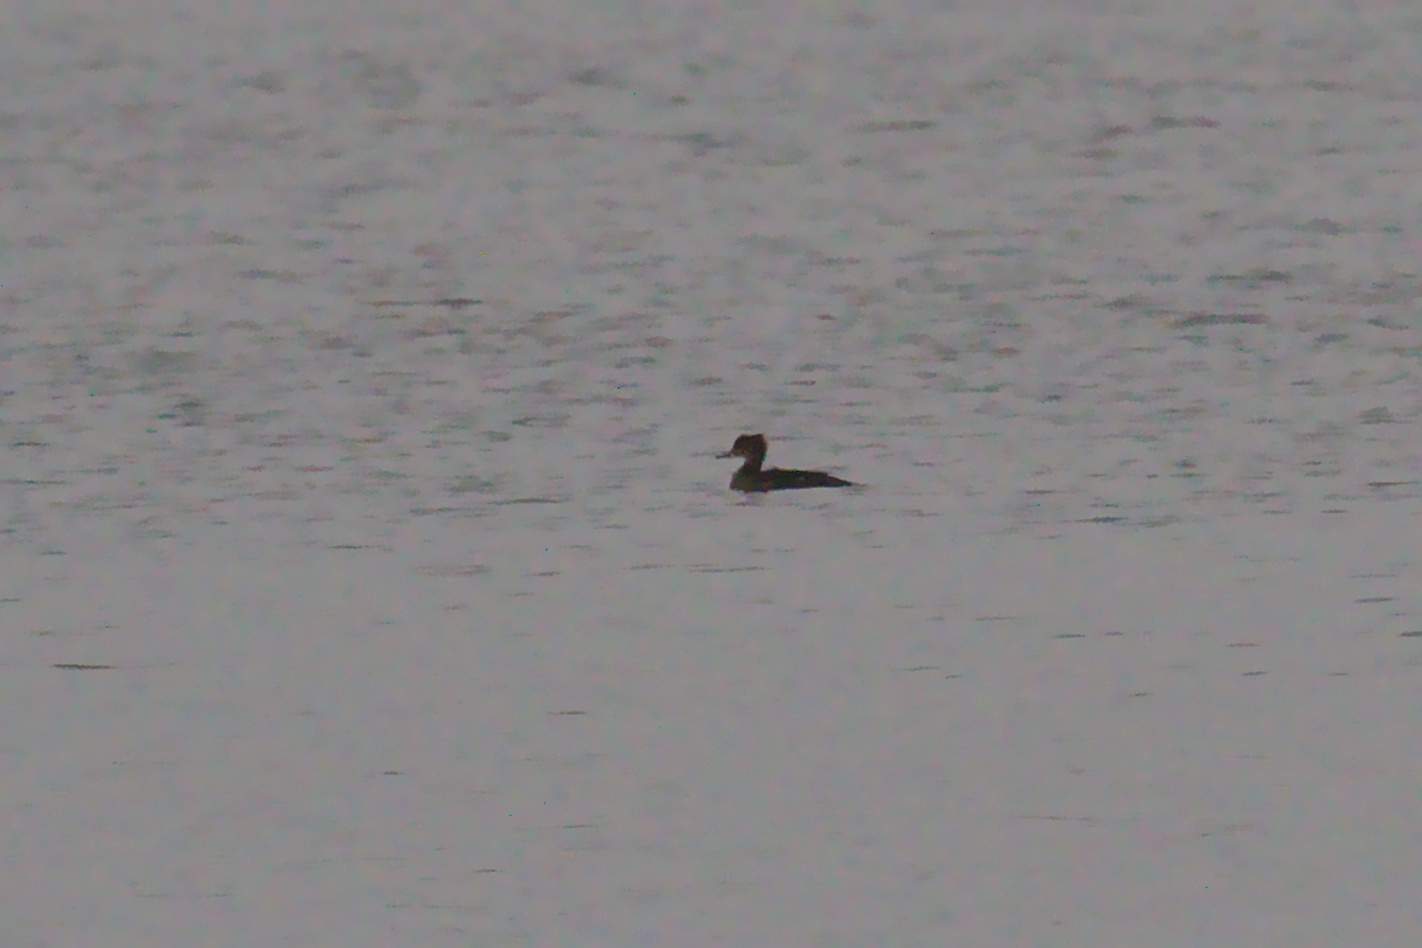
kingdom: Animalia
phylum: Chordata
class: Aves
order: Anseriformes
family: Anatidae
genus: Lophodytes
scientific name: Lophodytes cucullatus
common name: Hooded merganser
